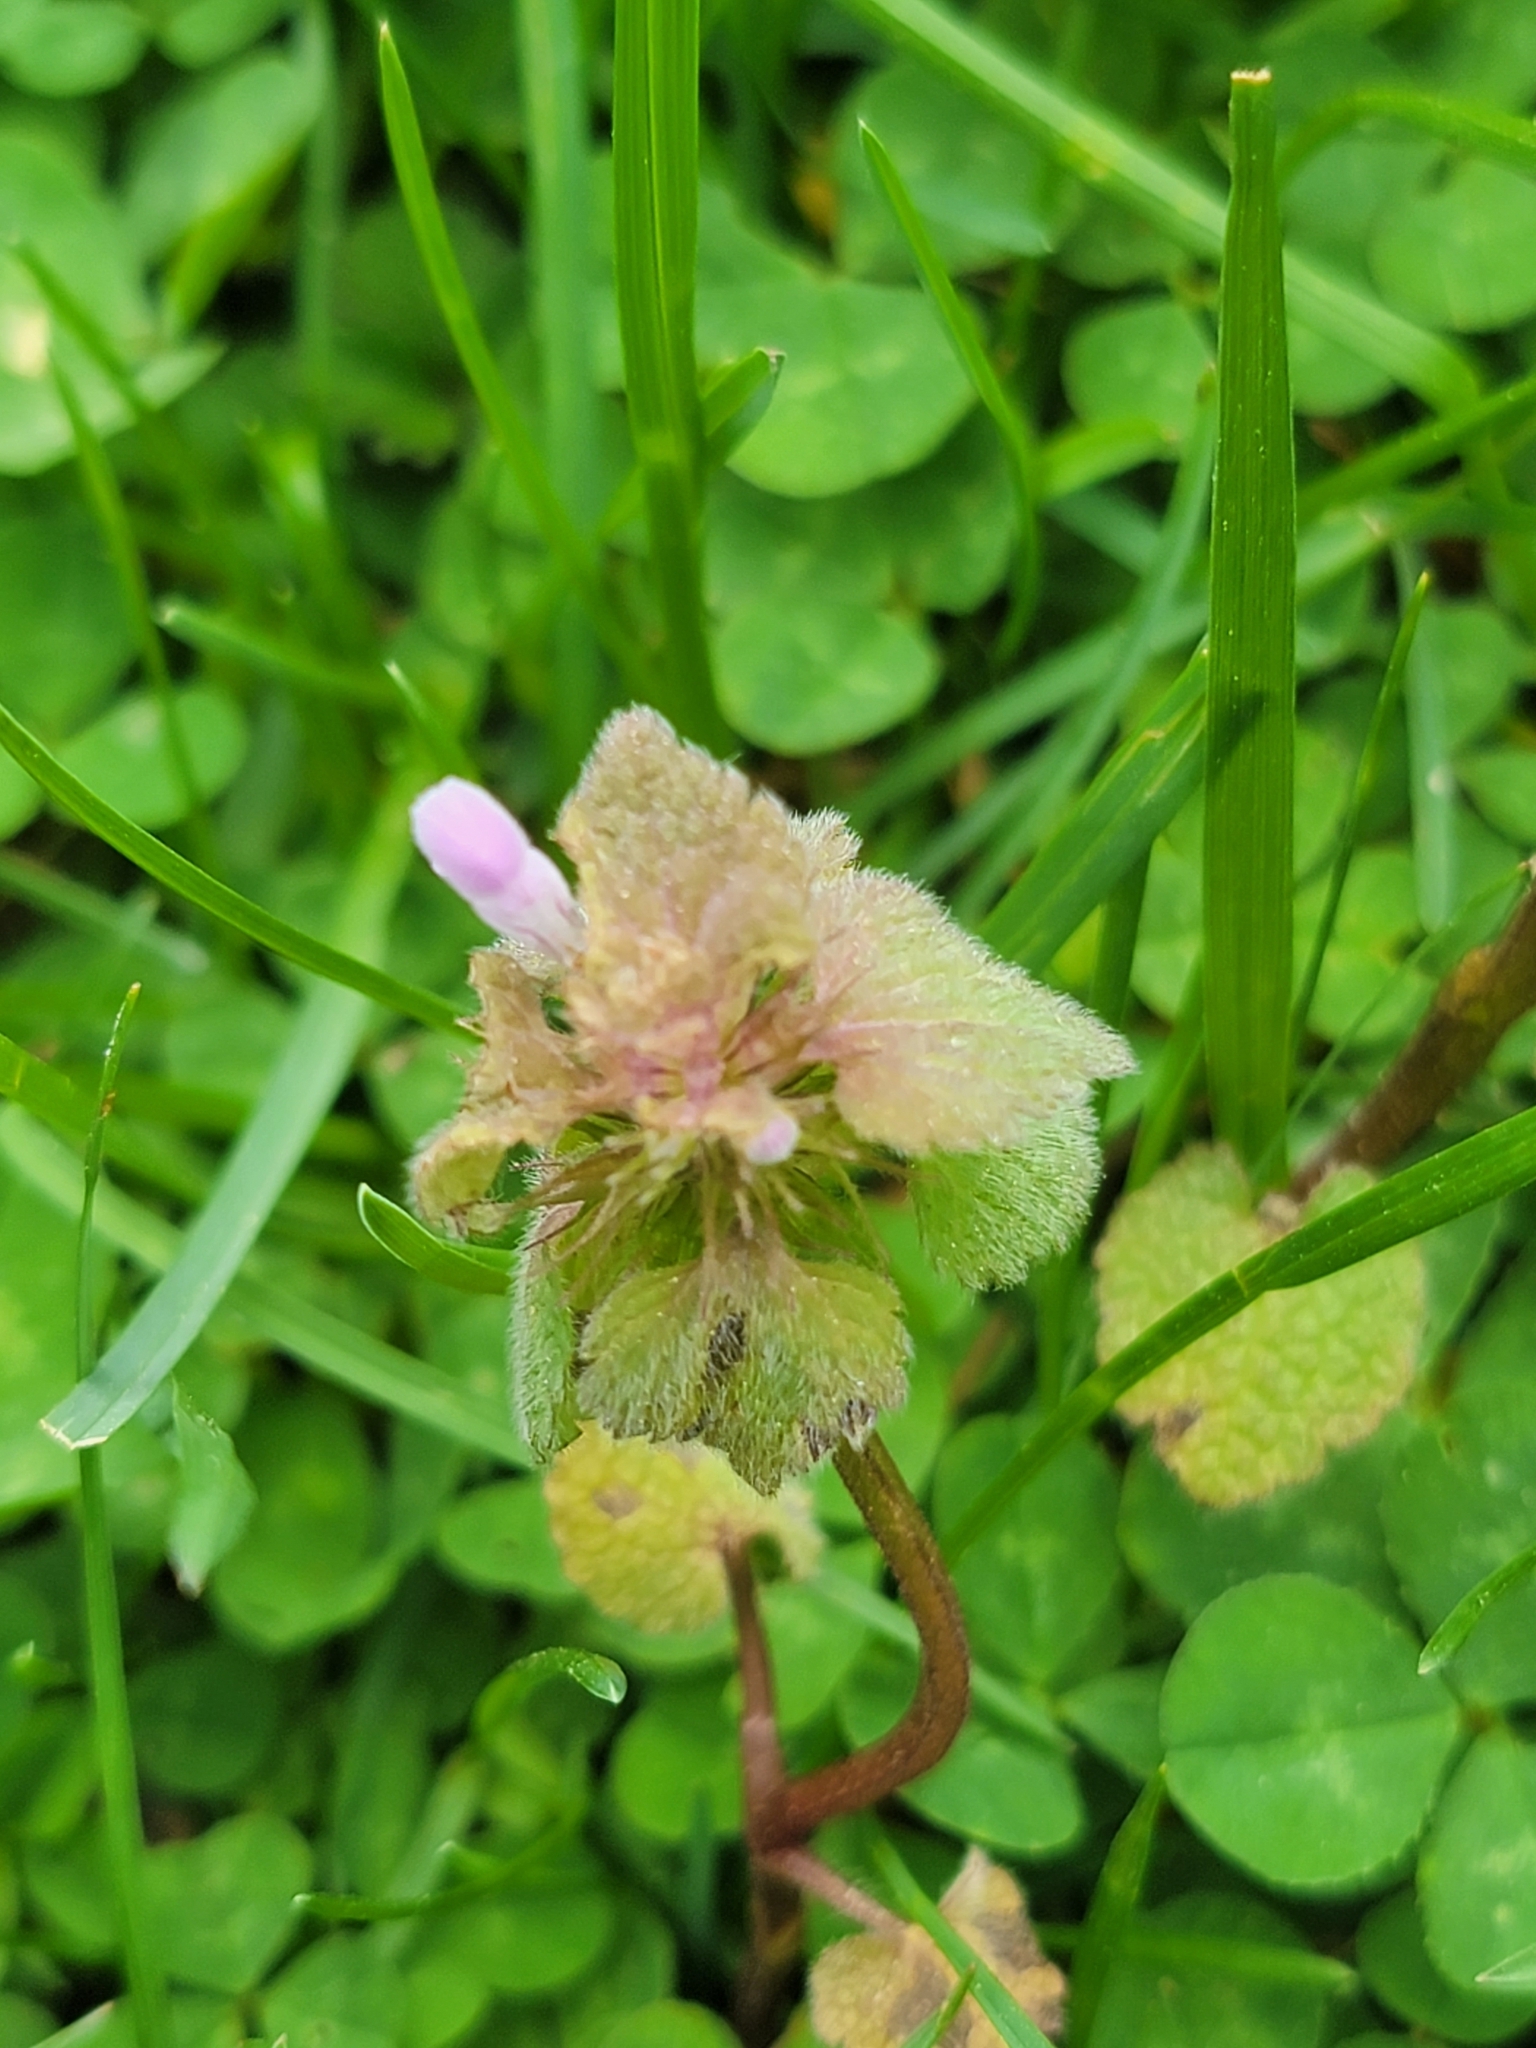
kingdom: Plantae
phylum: Tracheophyta
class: Magnoliopsida
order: Lamiales
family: Lamiaceae
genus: Lamium
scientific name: Lamium purpureum
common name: Red dead-nettle
